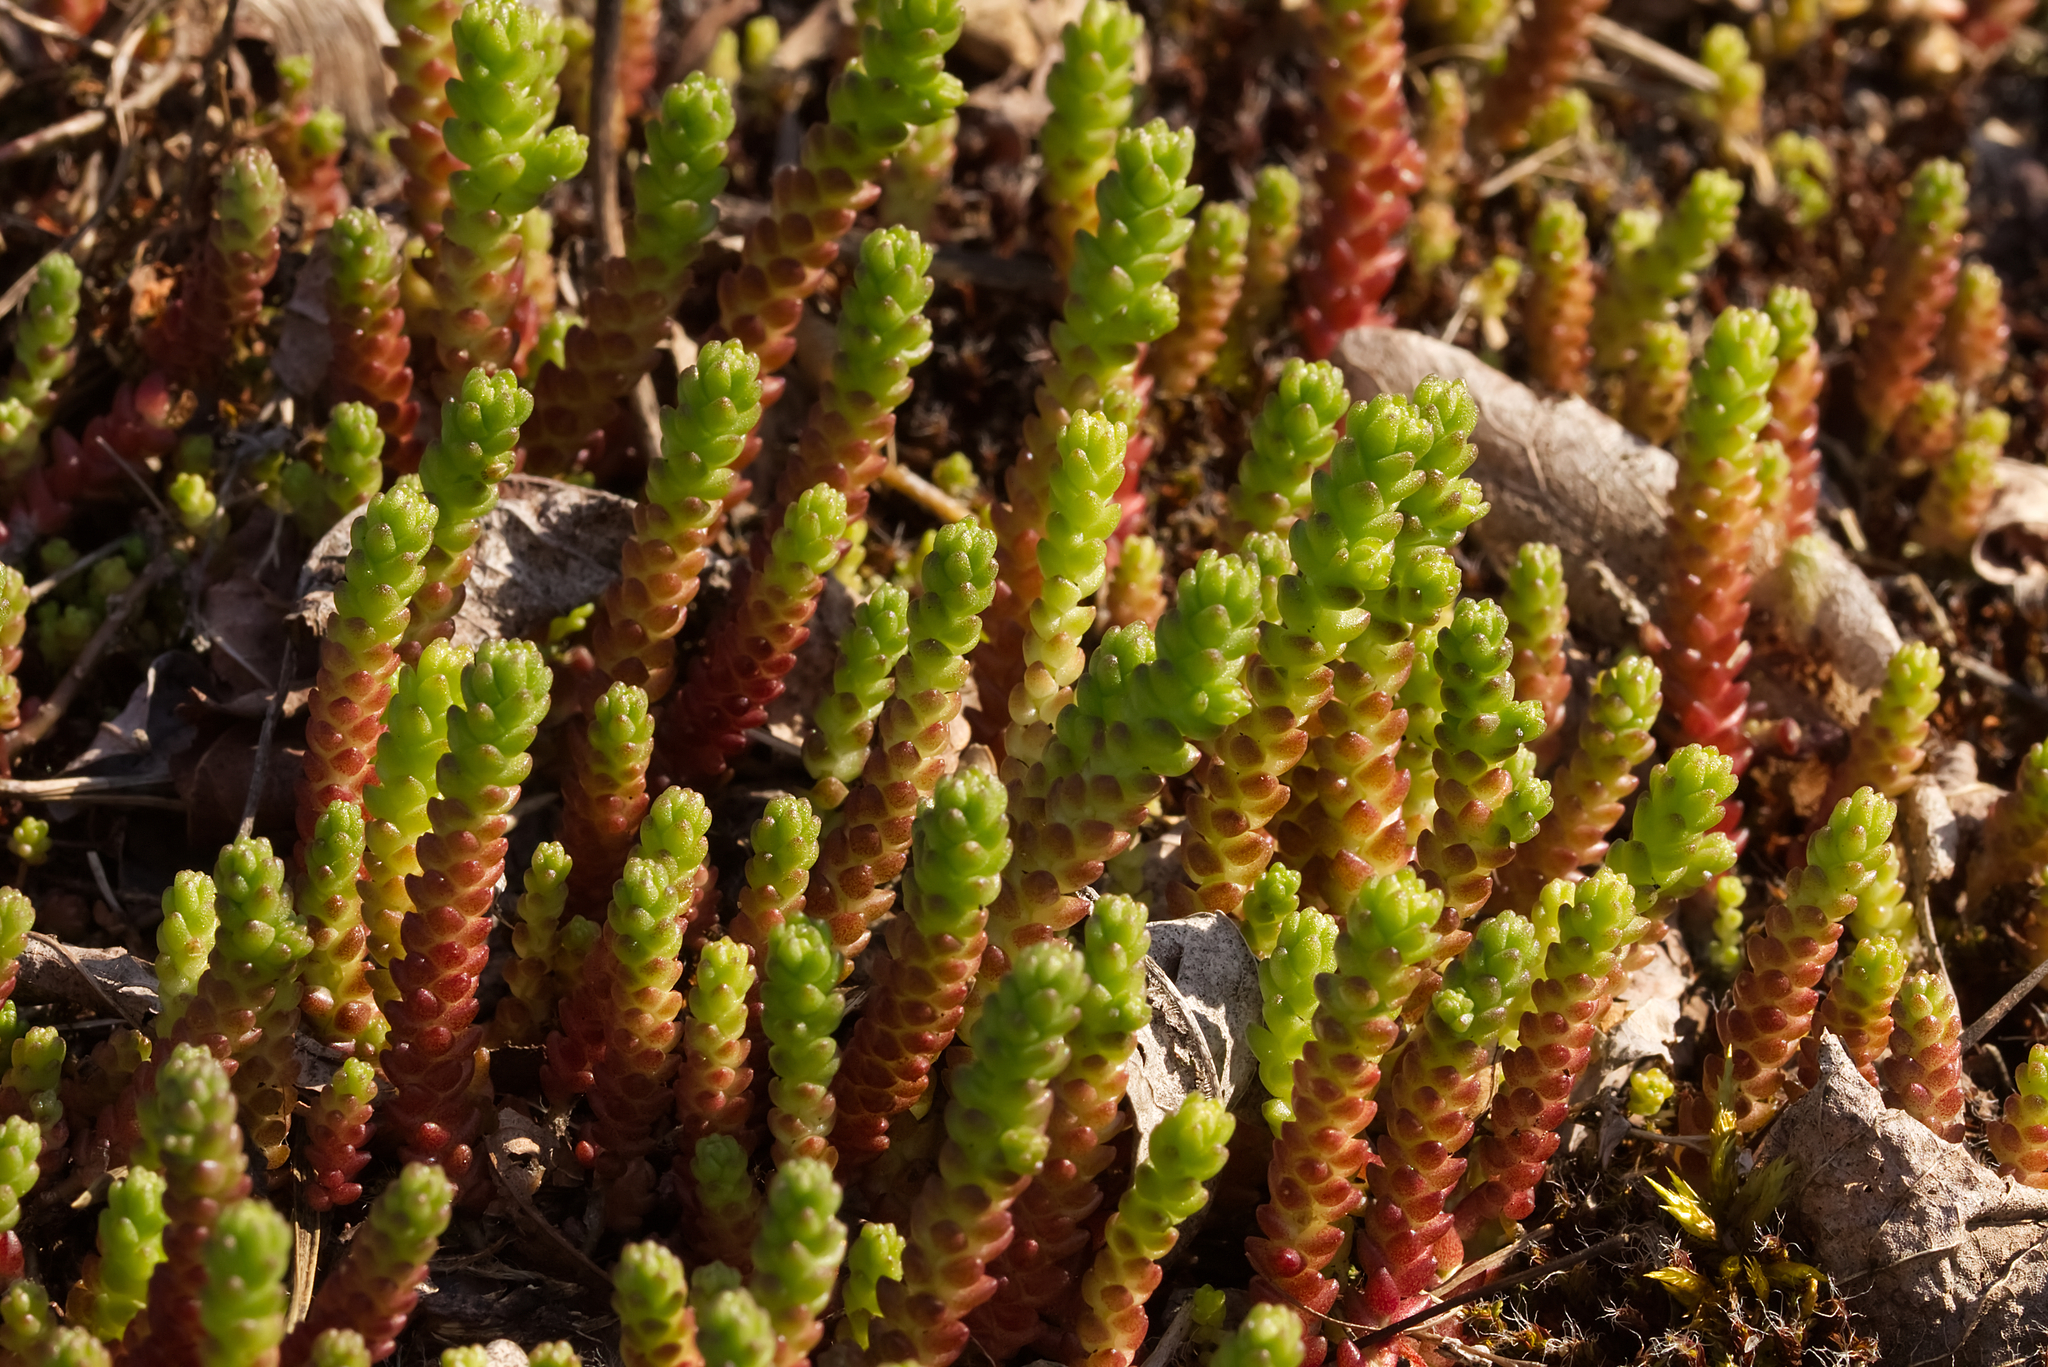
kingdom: Plantae
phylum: Tracheophyta
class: Magnoliopsida
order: Saxifragales
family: Crassulaceae
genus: Sedum
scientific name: Sedum acre
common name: Biting stonecrop
